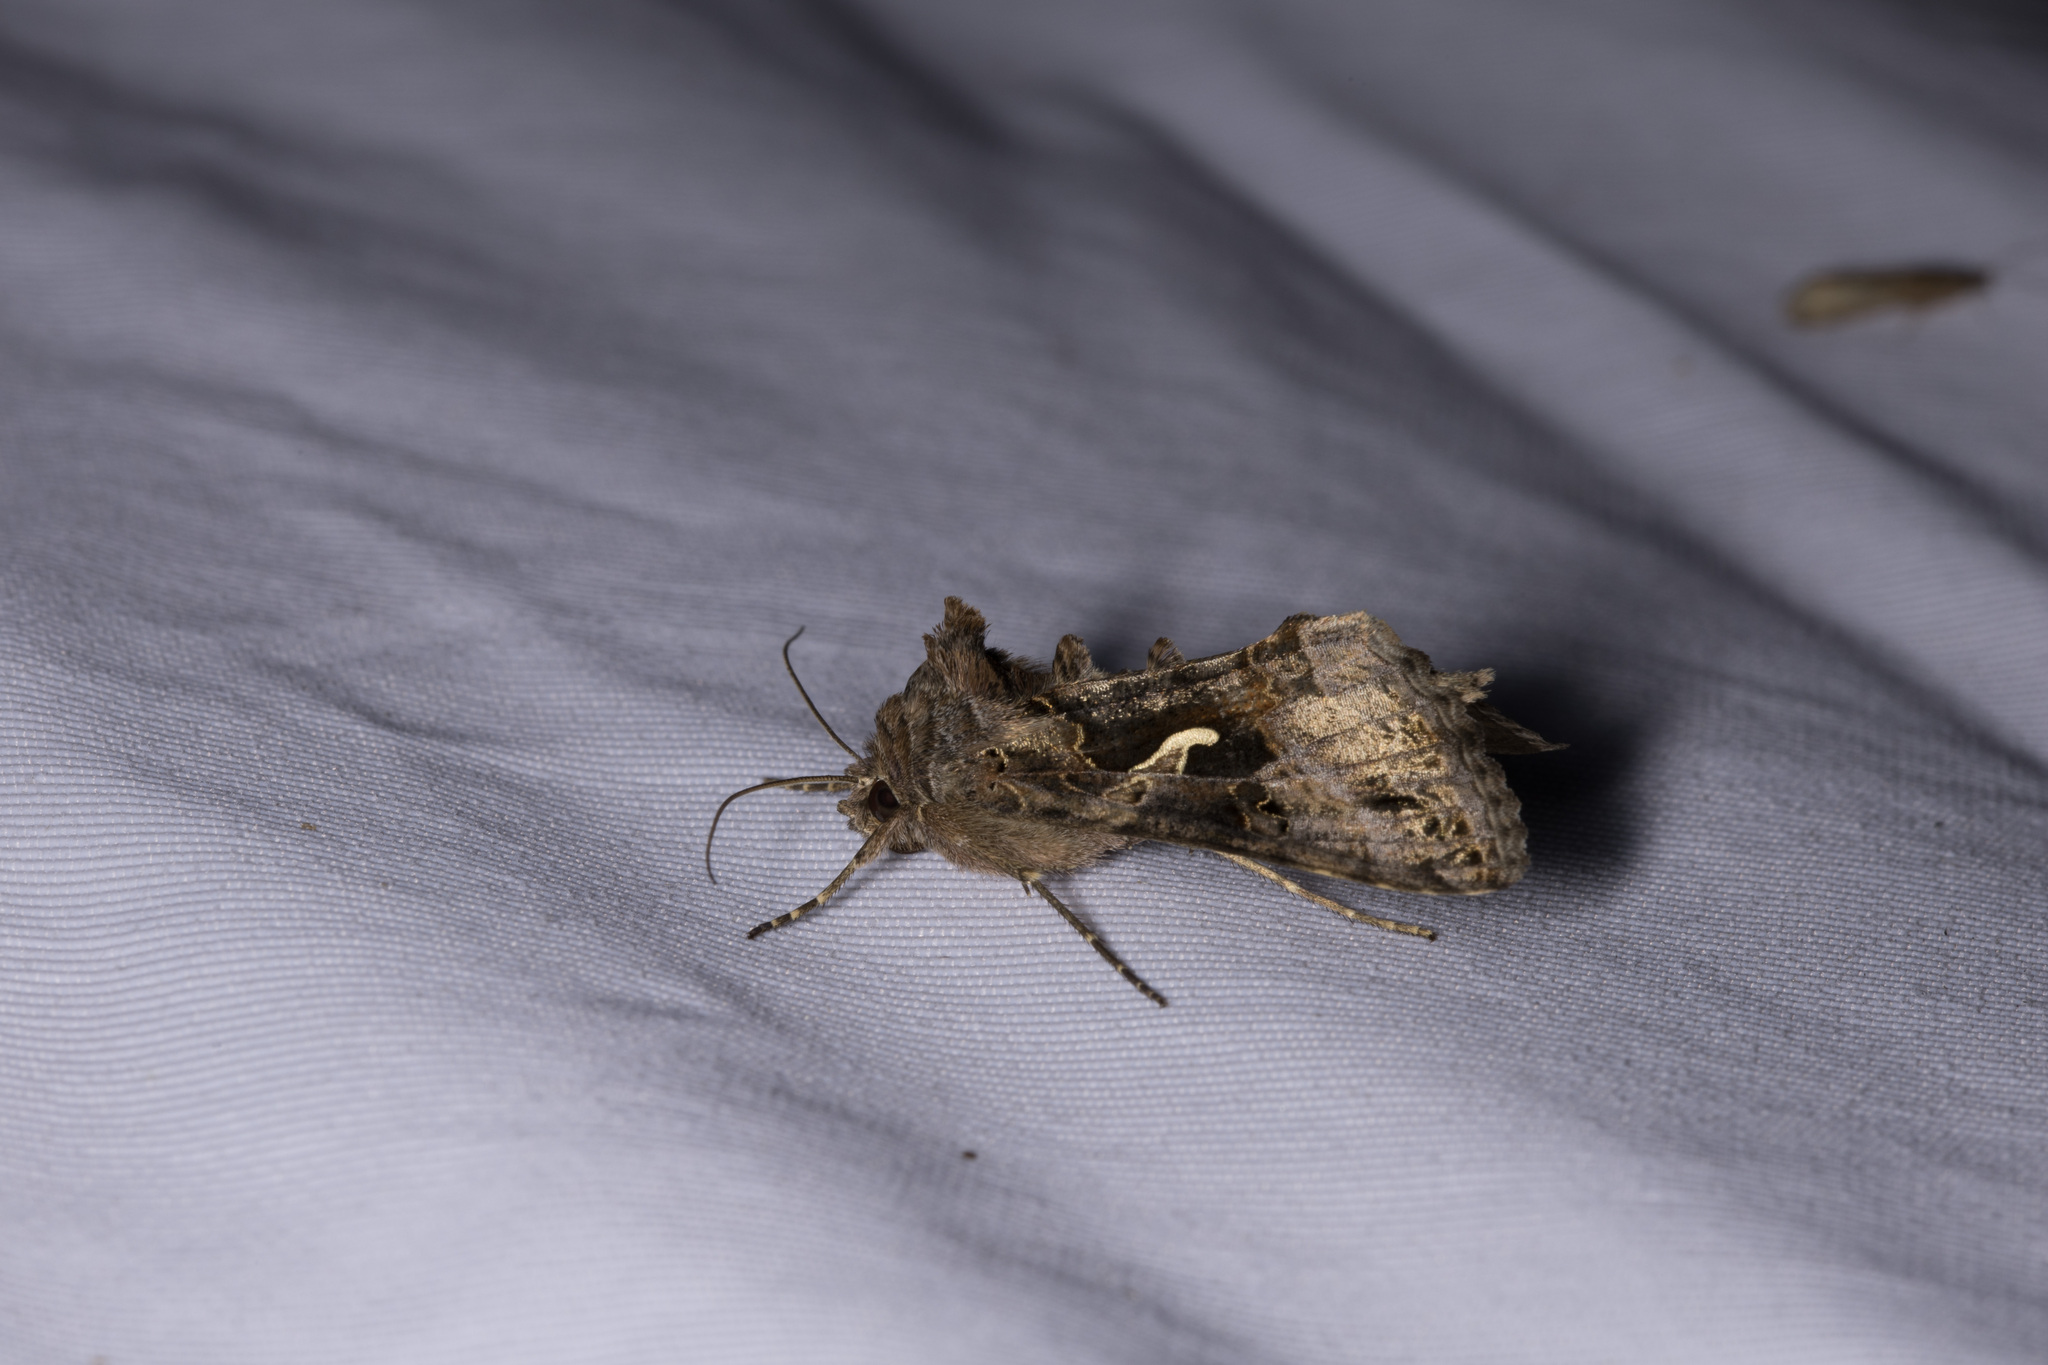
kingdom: Animalia
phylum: Arthropoda
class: Insecta
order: Lepidoptera
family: Noctuidae
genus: Autographa
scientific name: Autographa gamma
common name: Silver y
